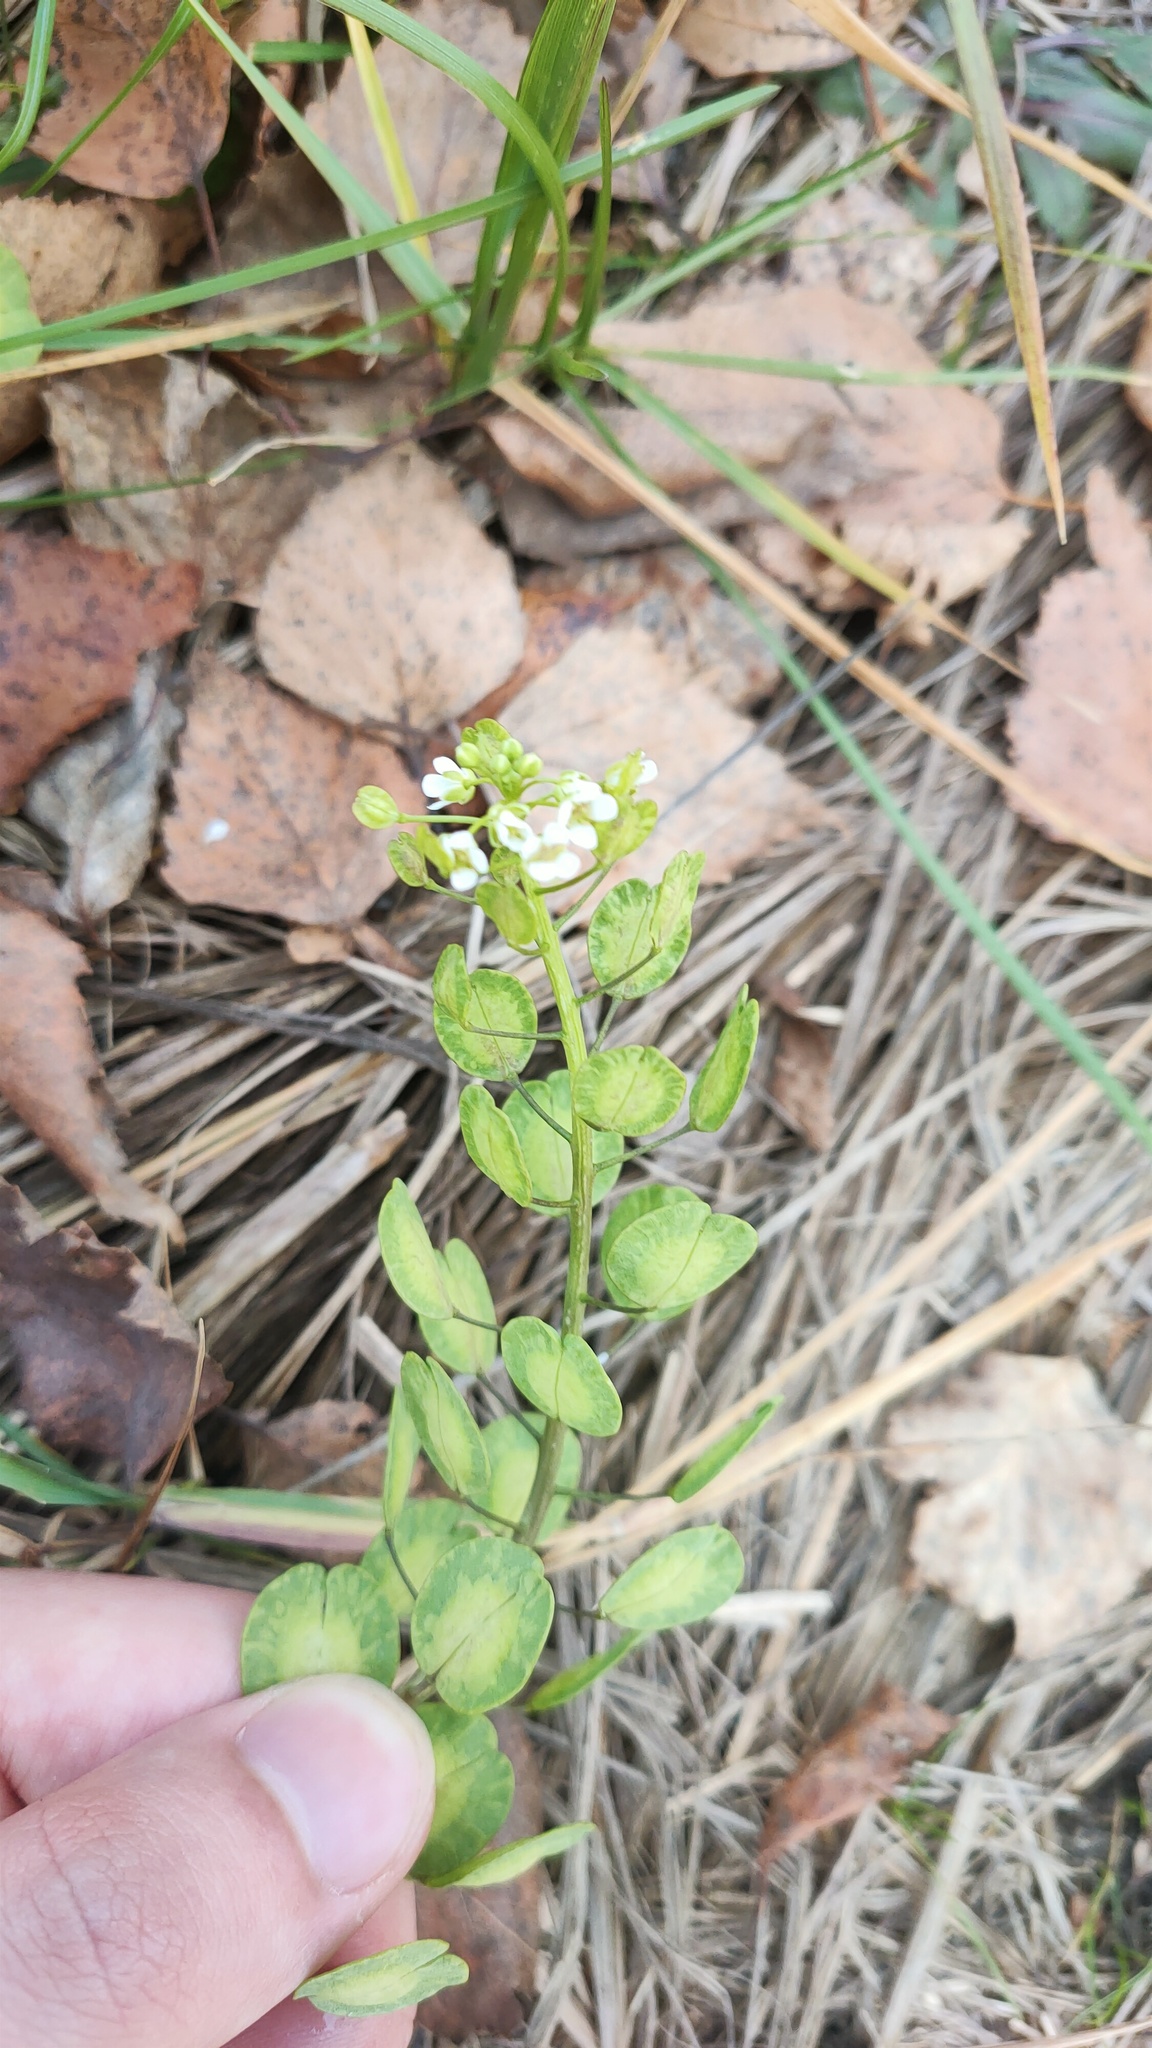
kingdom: Plantae
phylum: Tracheophyta
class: Magnoliopsida
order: Brassicales
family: Brassicaceae
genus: Thlaspi
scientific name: Thlaspi arvense
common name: Field pennycress
